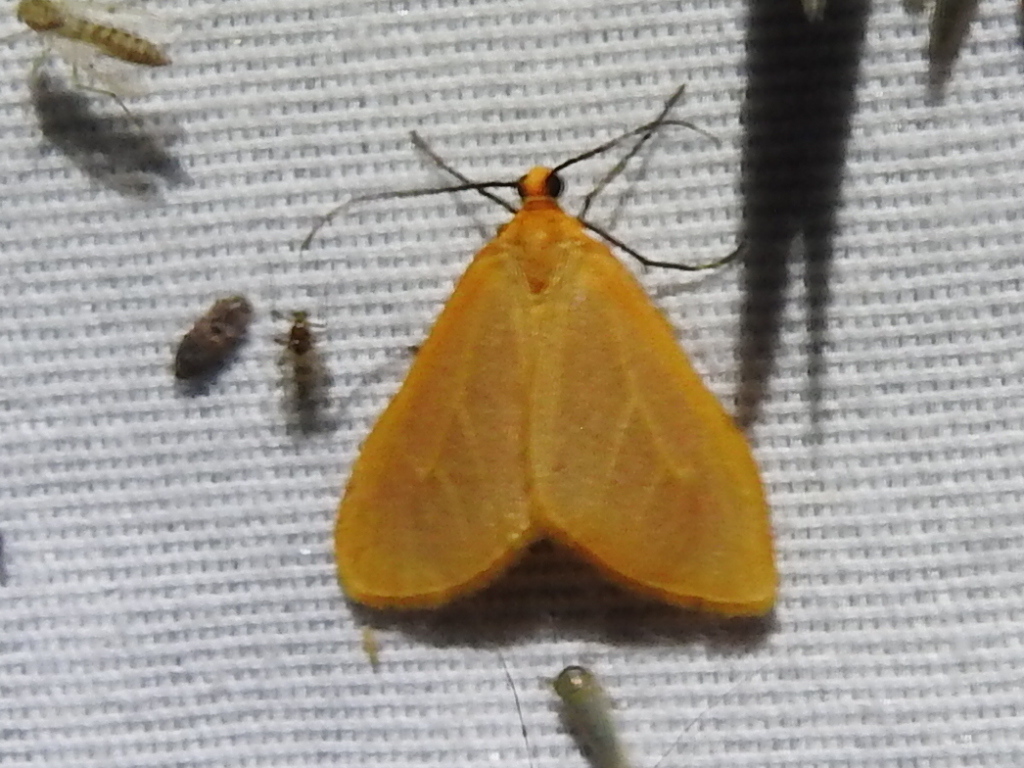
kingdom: Animalia
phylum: Arthropoda
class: Insecta
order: Lepidoptera
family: Geometridae
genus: Eubaphe
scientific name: Eubaphe unicolor
